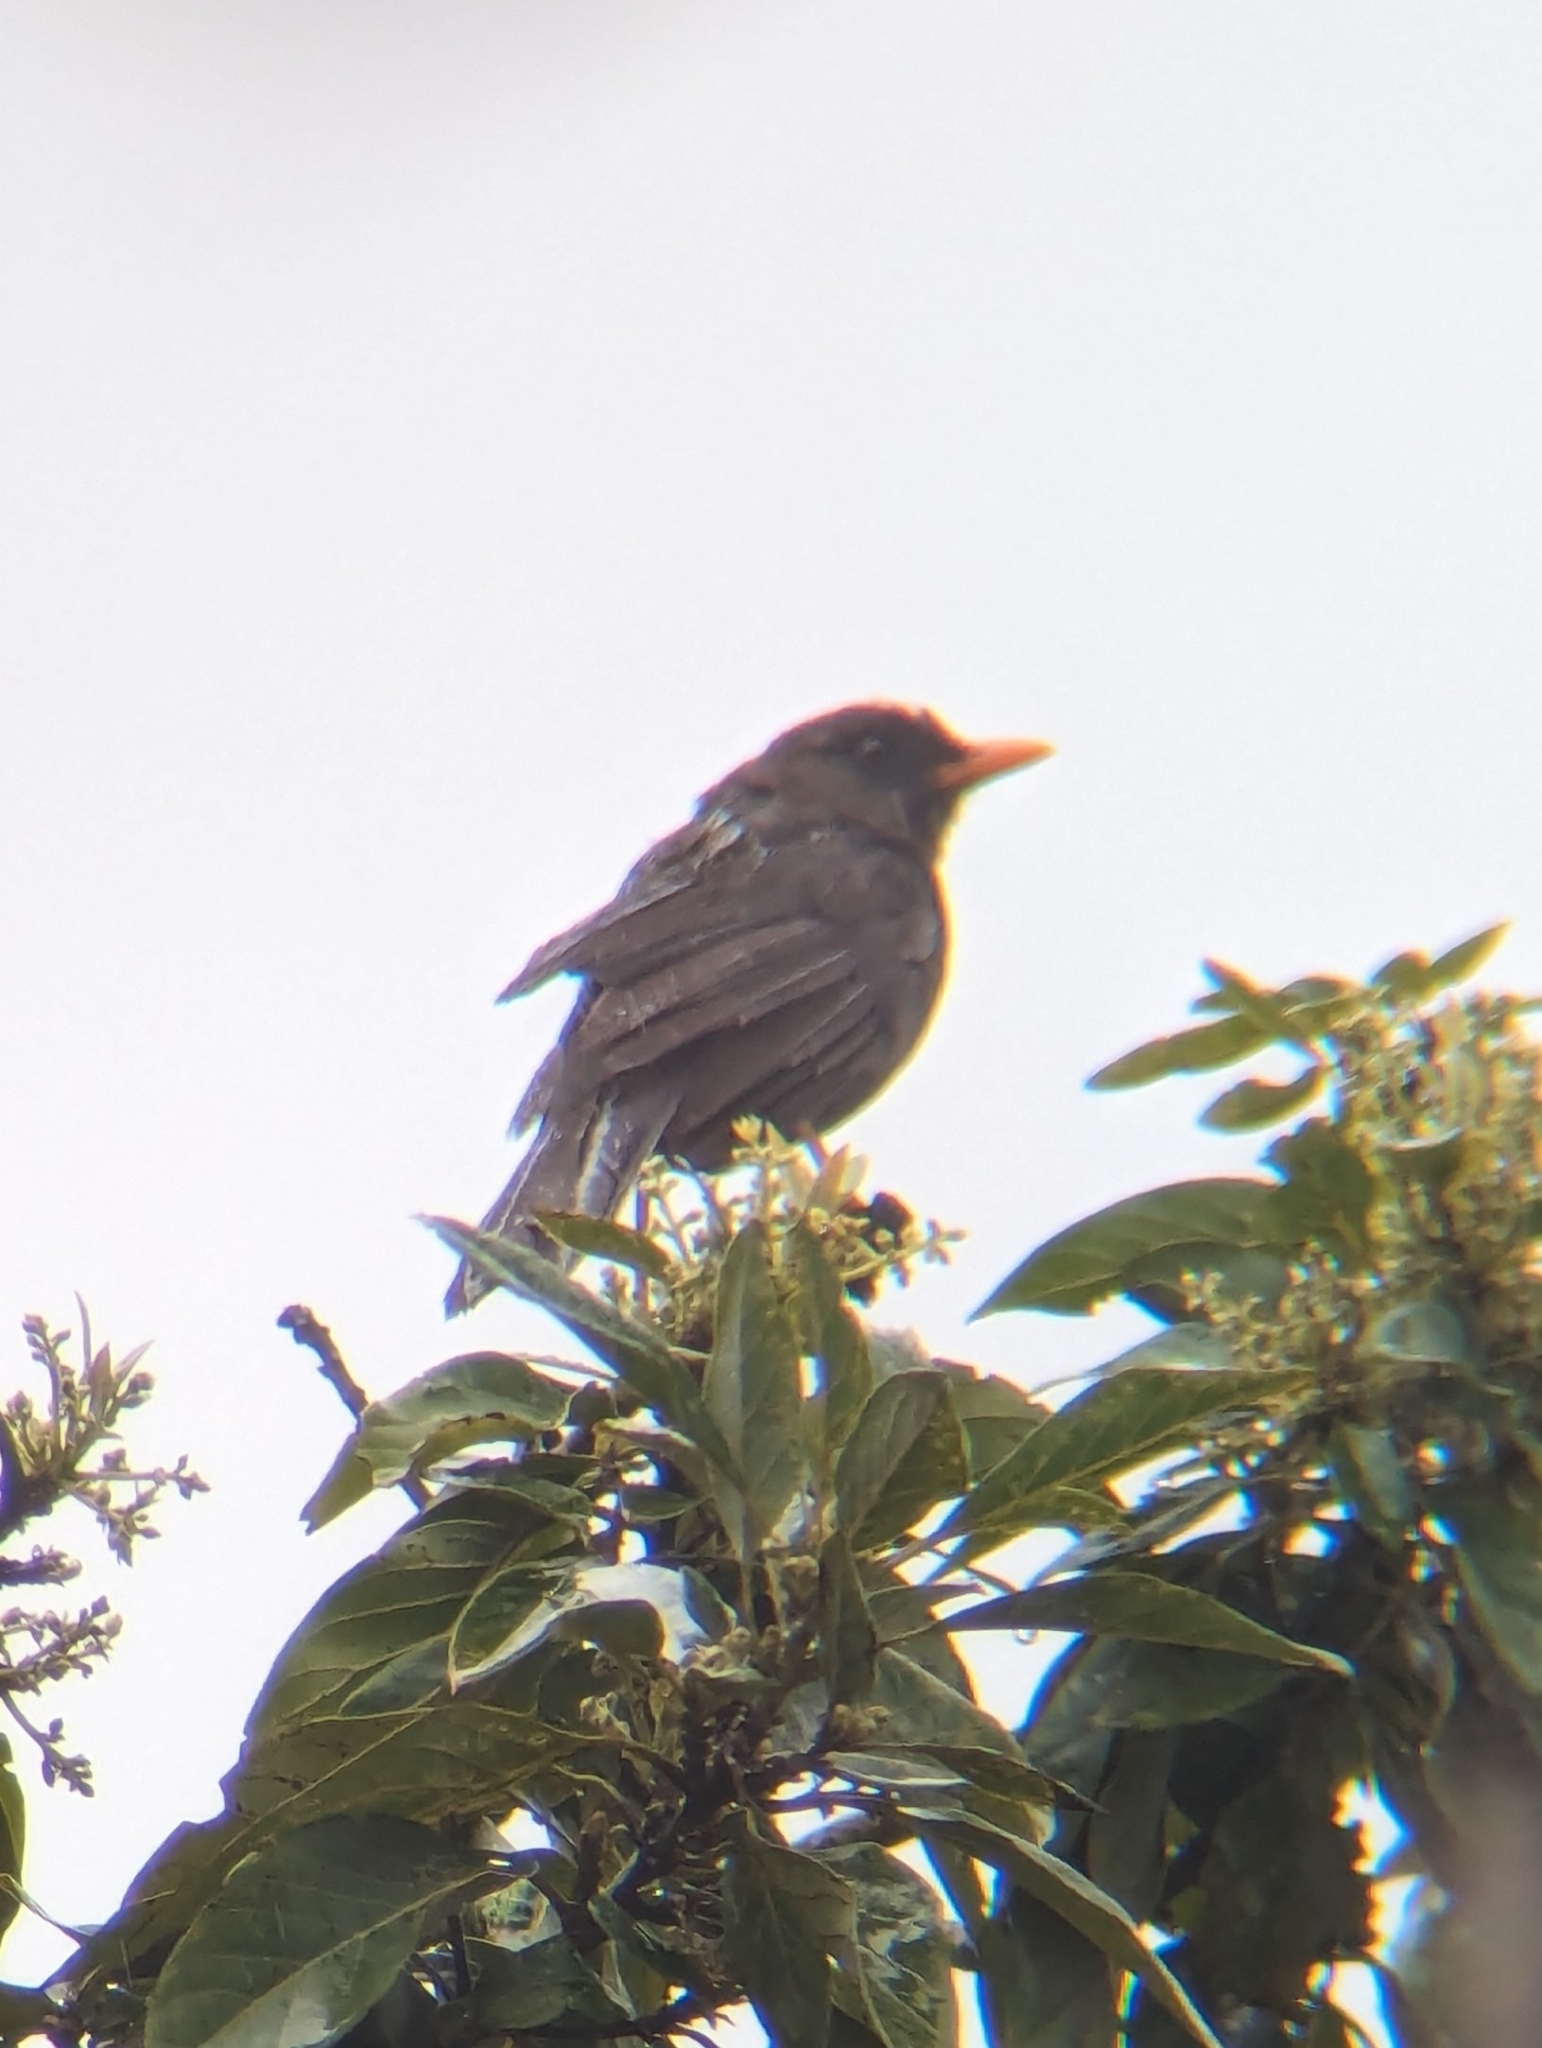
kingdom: Animalia
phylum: Chordata
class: Aves
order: Passeriformes
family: Turdidae
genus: Turdus
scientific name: Turdus fuscater
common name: Great thrush
